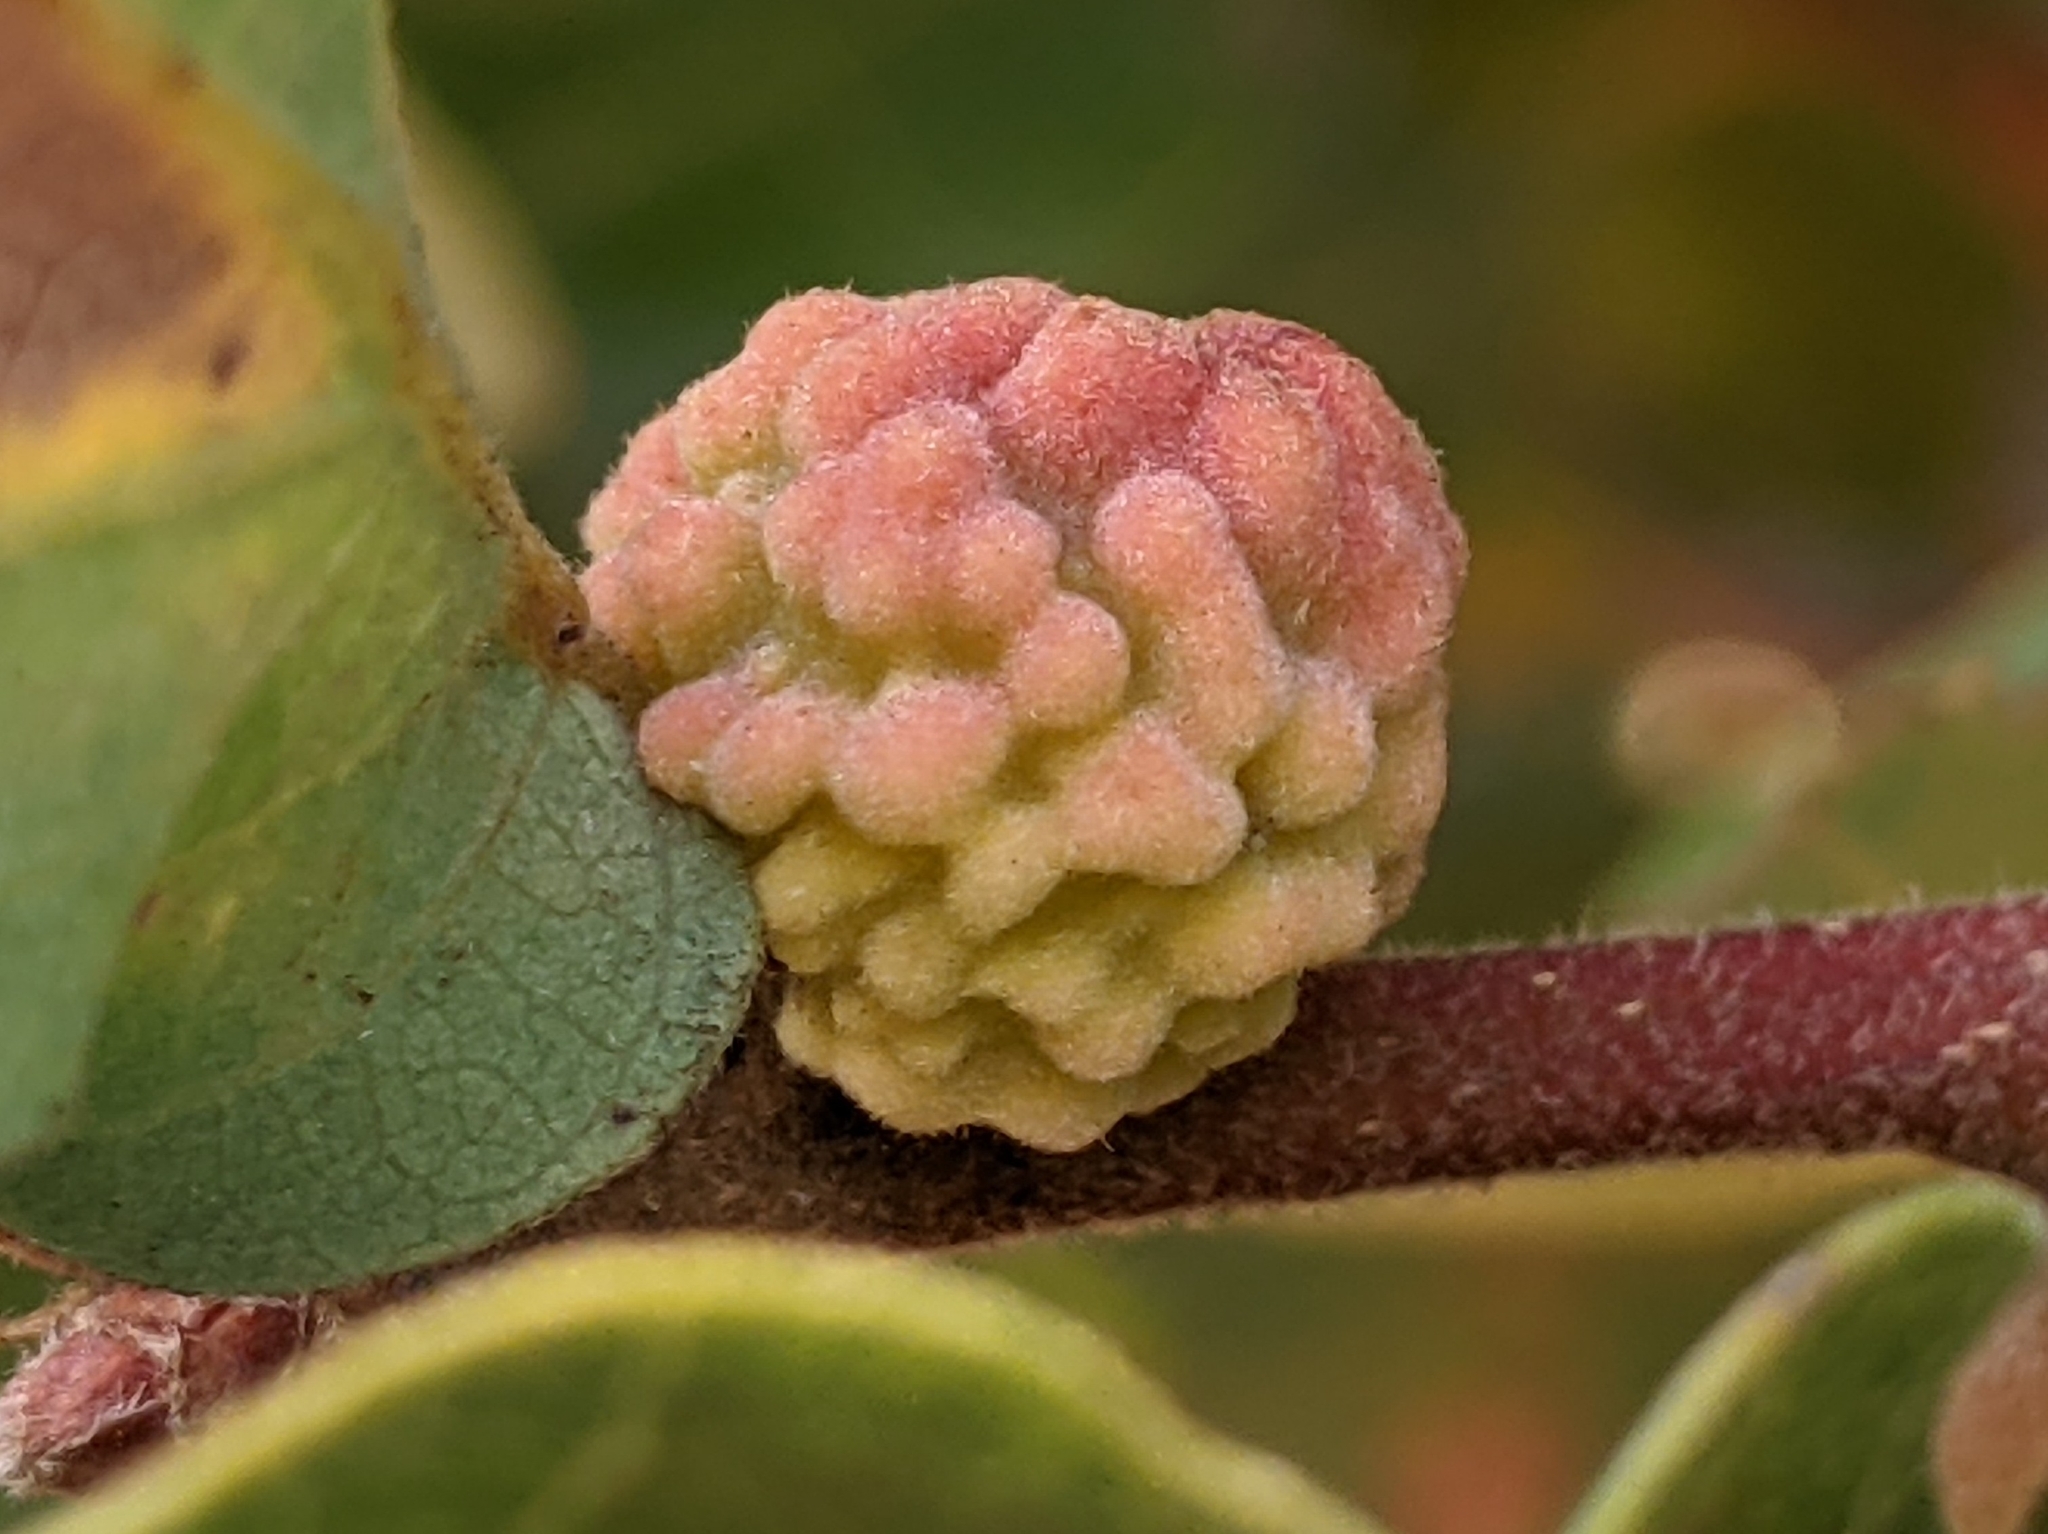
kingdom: Animalia
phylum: Arthropoda
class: Insecta
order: Hymenoptera
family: Cynipidae
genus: Burnettweldia
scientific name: Burnettweldia
